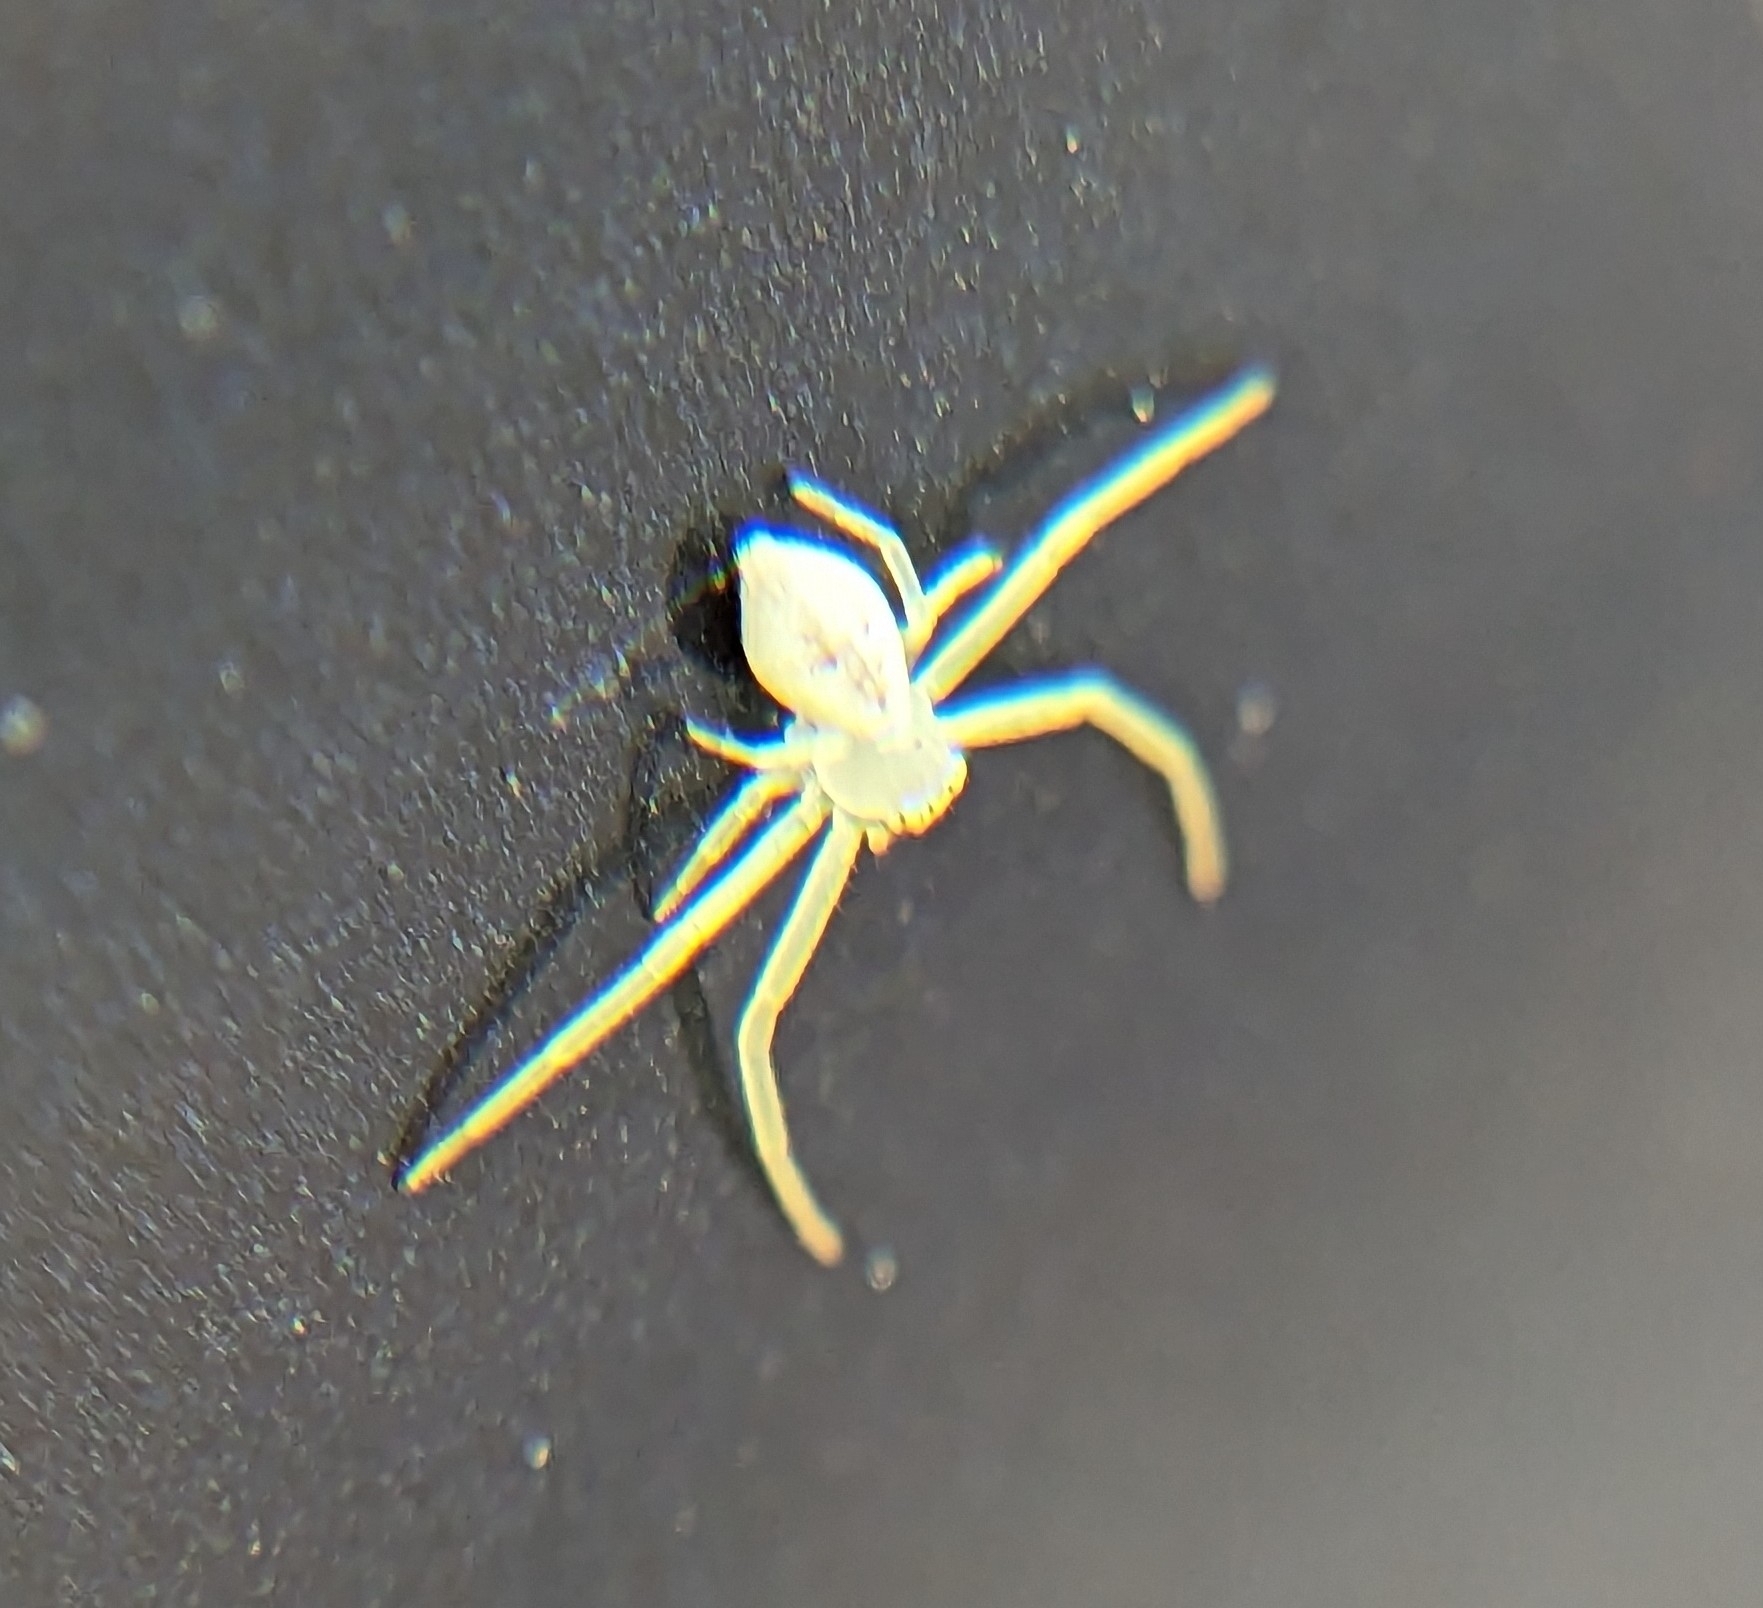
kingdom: Animalia
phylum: Arthropoda
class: Arachnida
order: Araneae
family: Thomisidae
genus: Misumessus
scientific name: Misumessus oblongus
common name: American green crab spider
